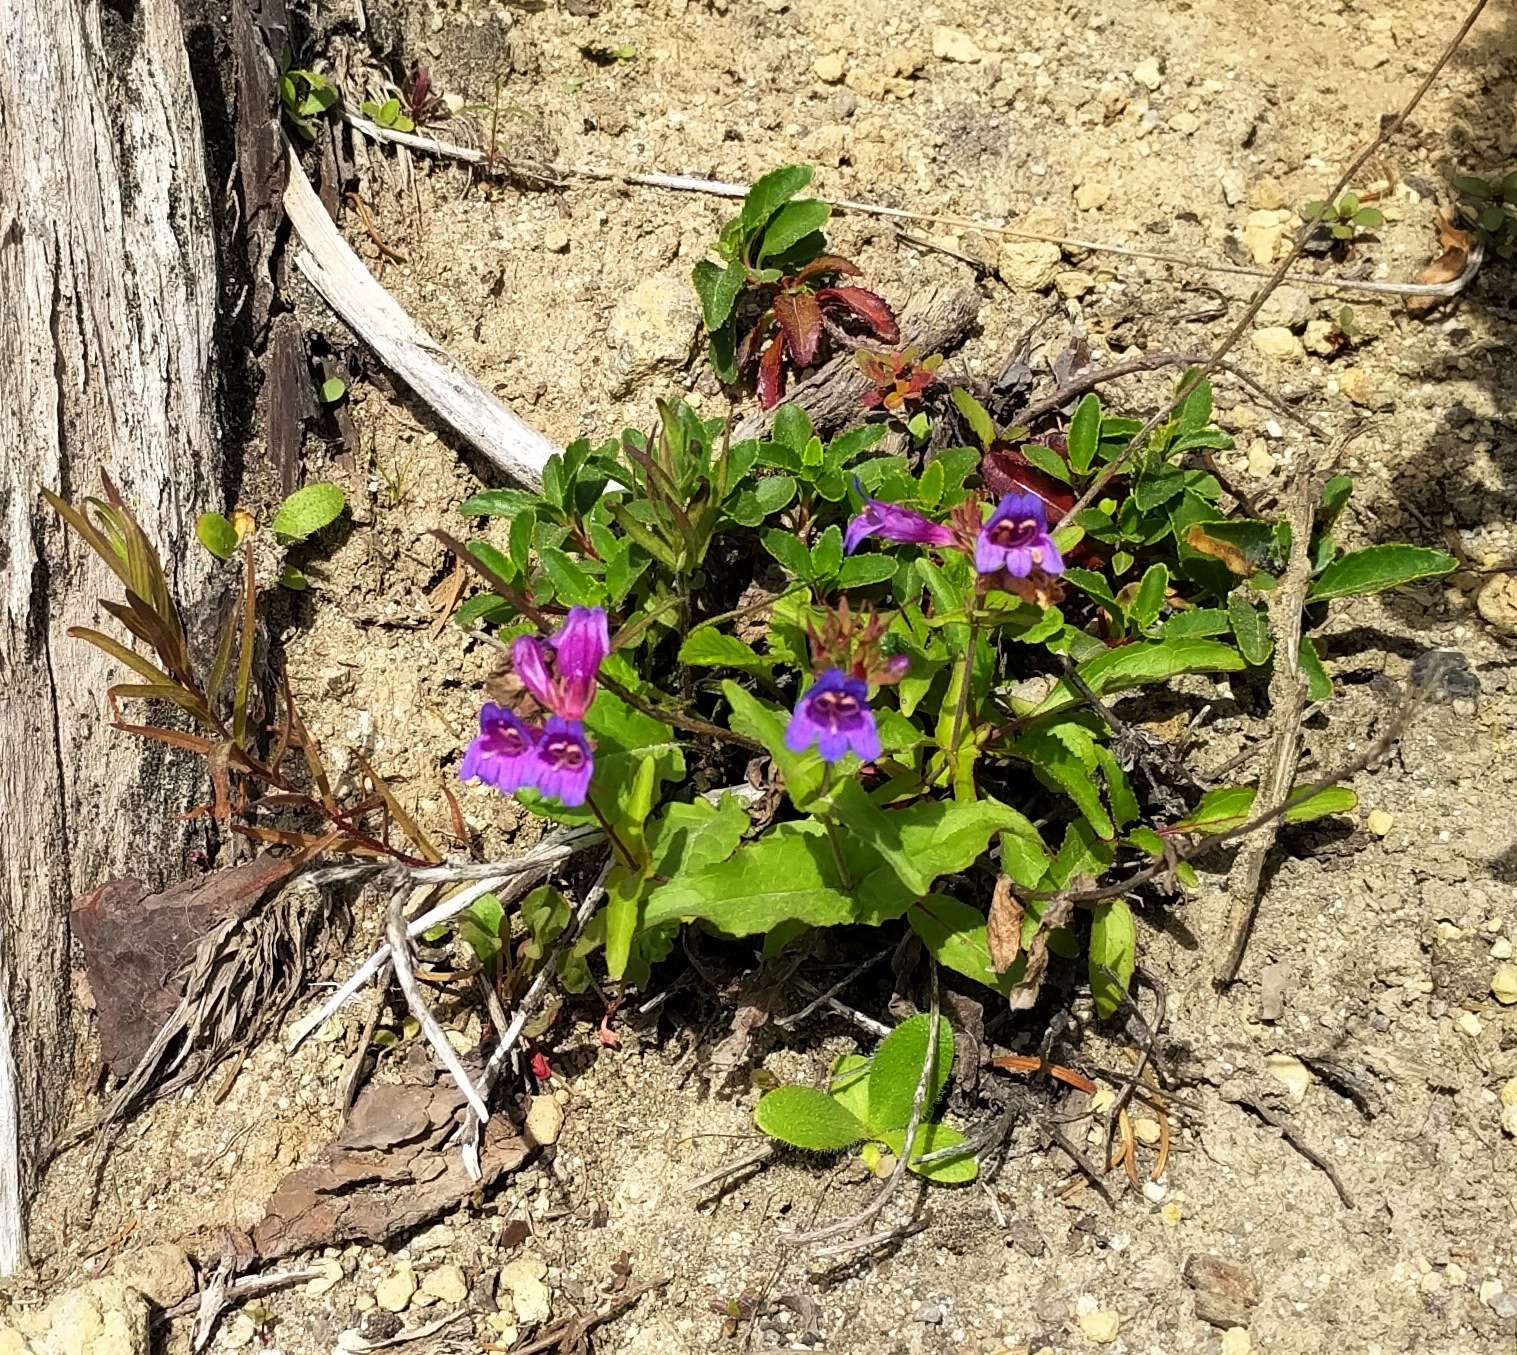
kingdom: Plantae
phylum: Tracheophyta
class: Magnoliopsida
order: Lamiales
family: Plantaginaceae
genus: Penstemon
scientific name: Penstemon serrulatus
